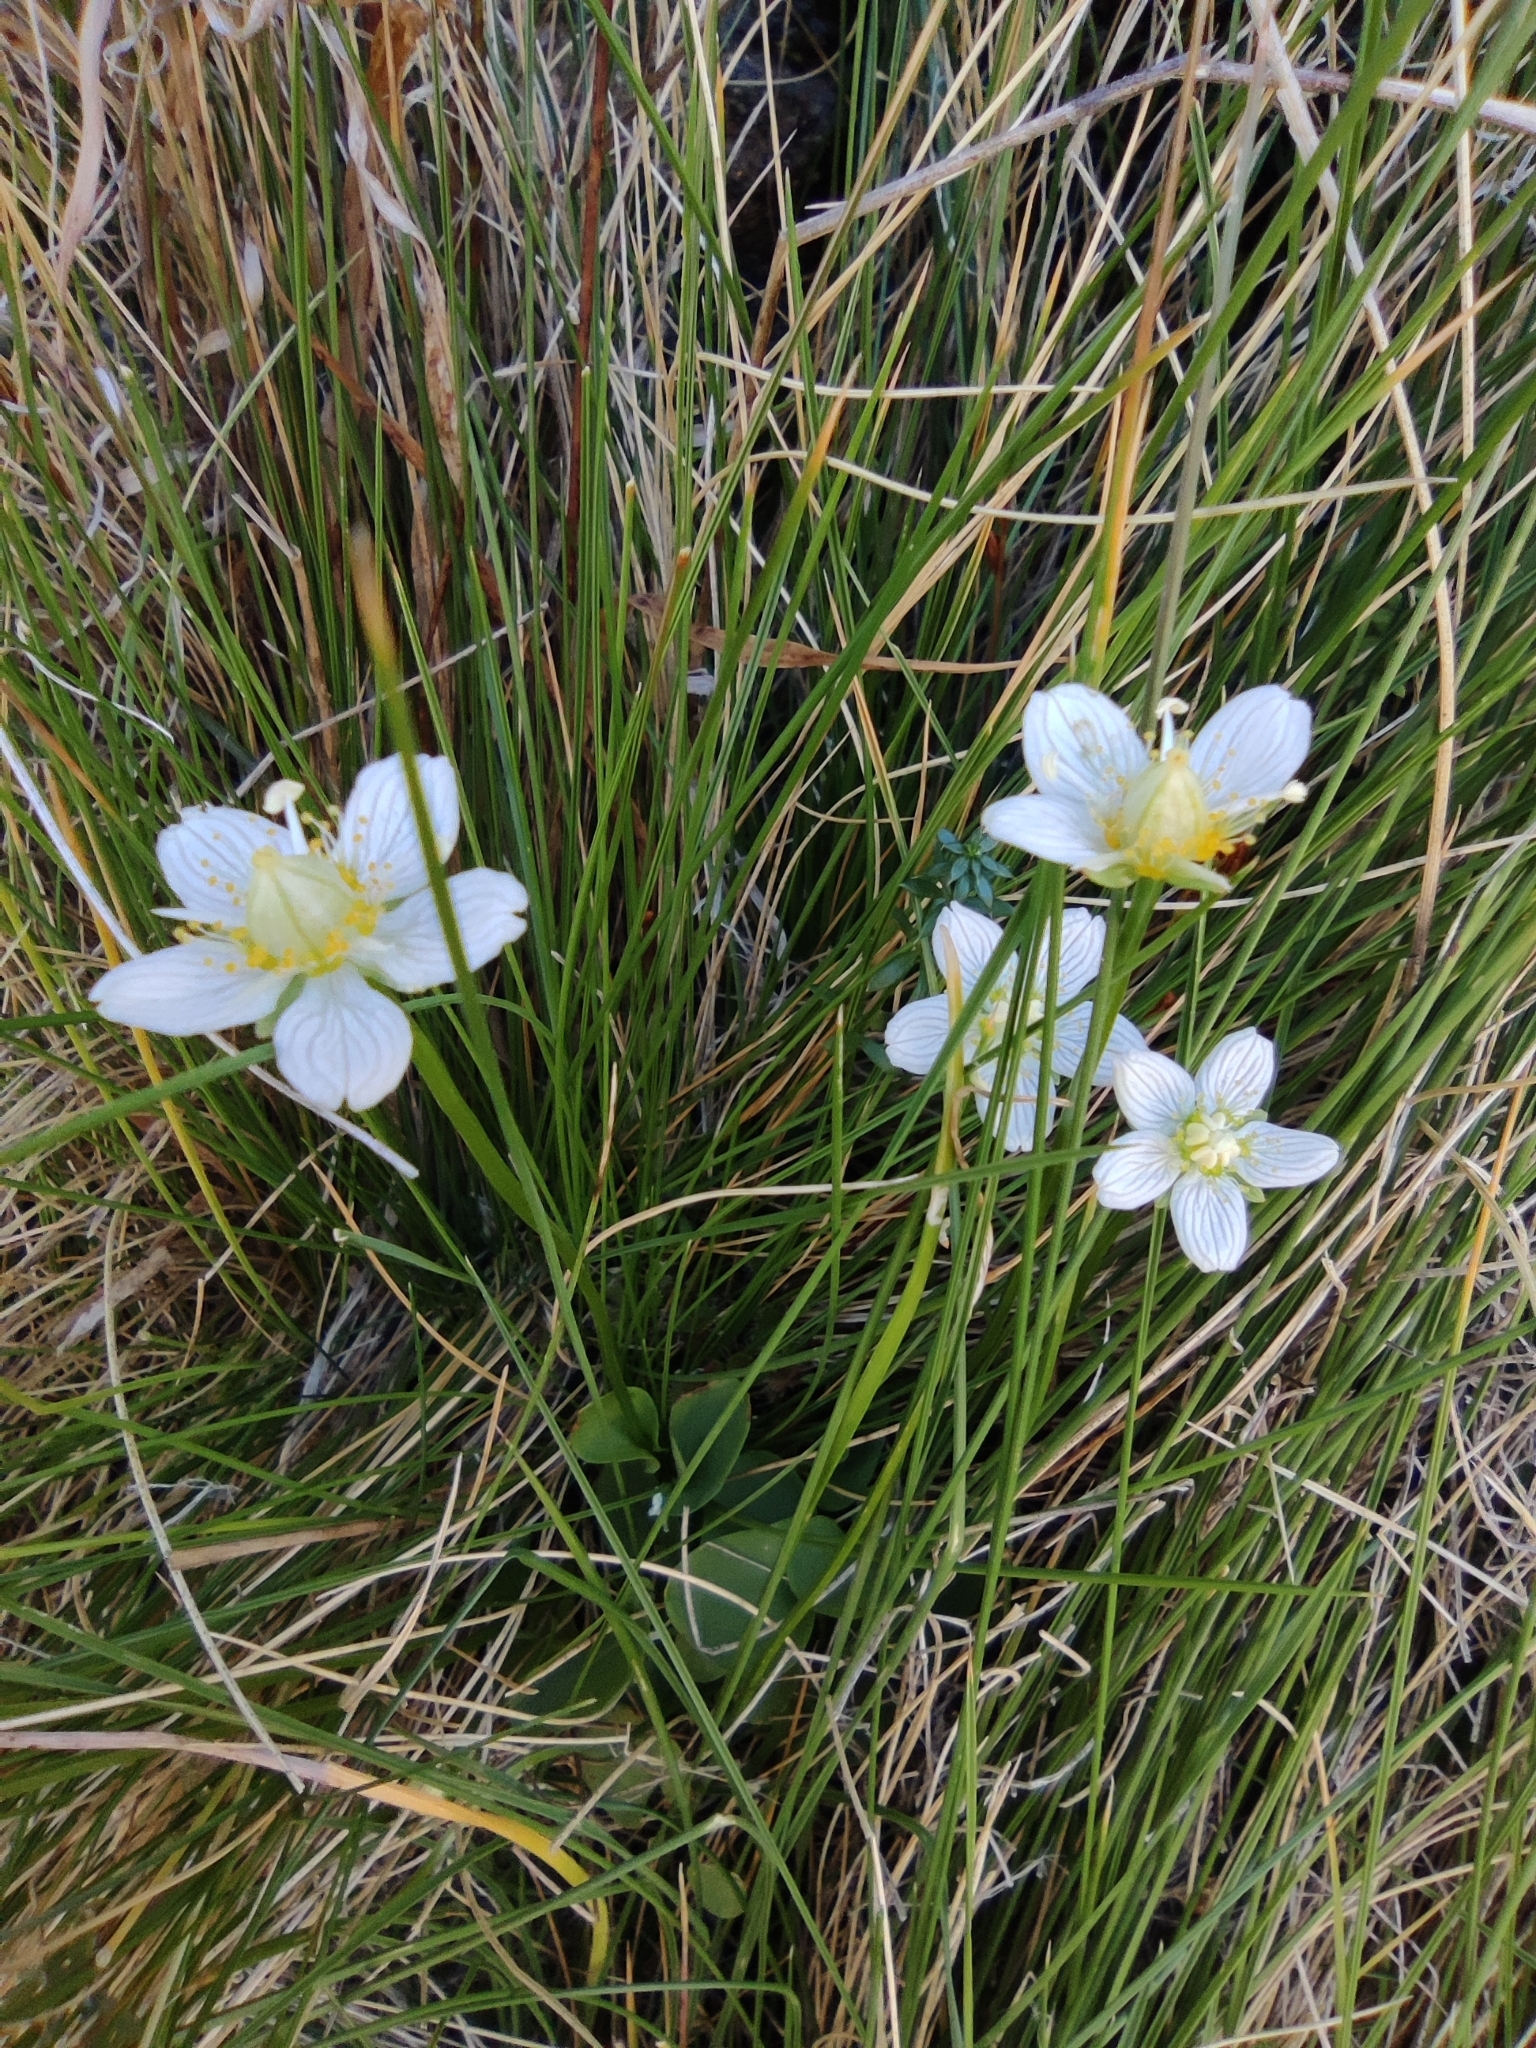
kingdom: Plantae
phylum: Tracheophyta
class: Magnoliopsida
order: Celastrales
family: Parnassiaceae
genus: Parnassia
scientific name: Parnassia palustris
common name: Grass-of-parnassus
